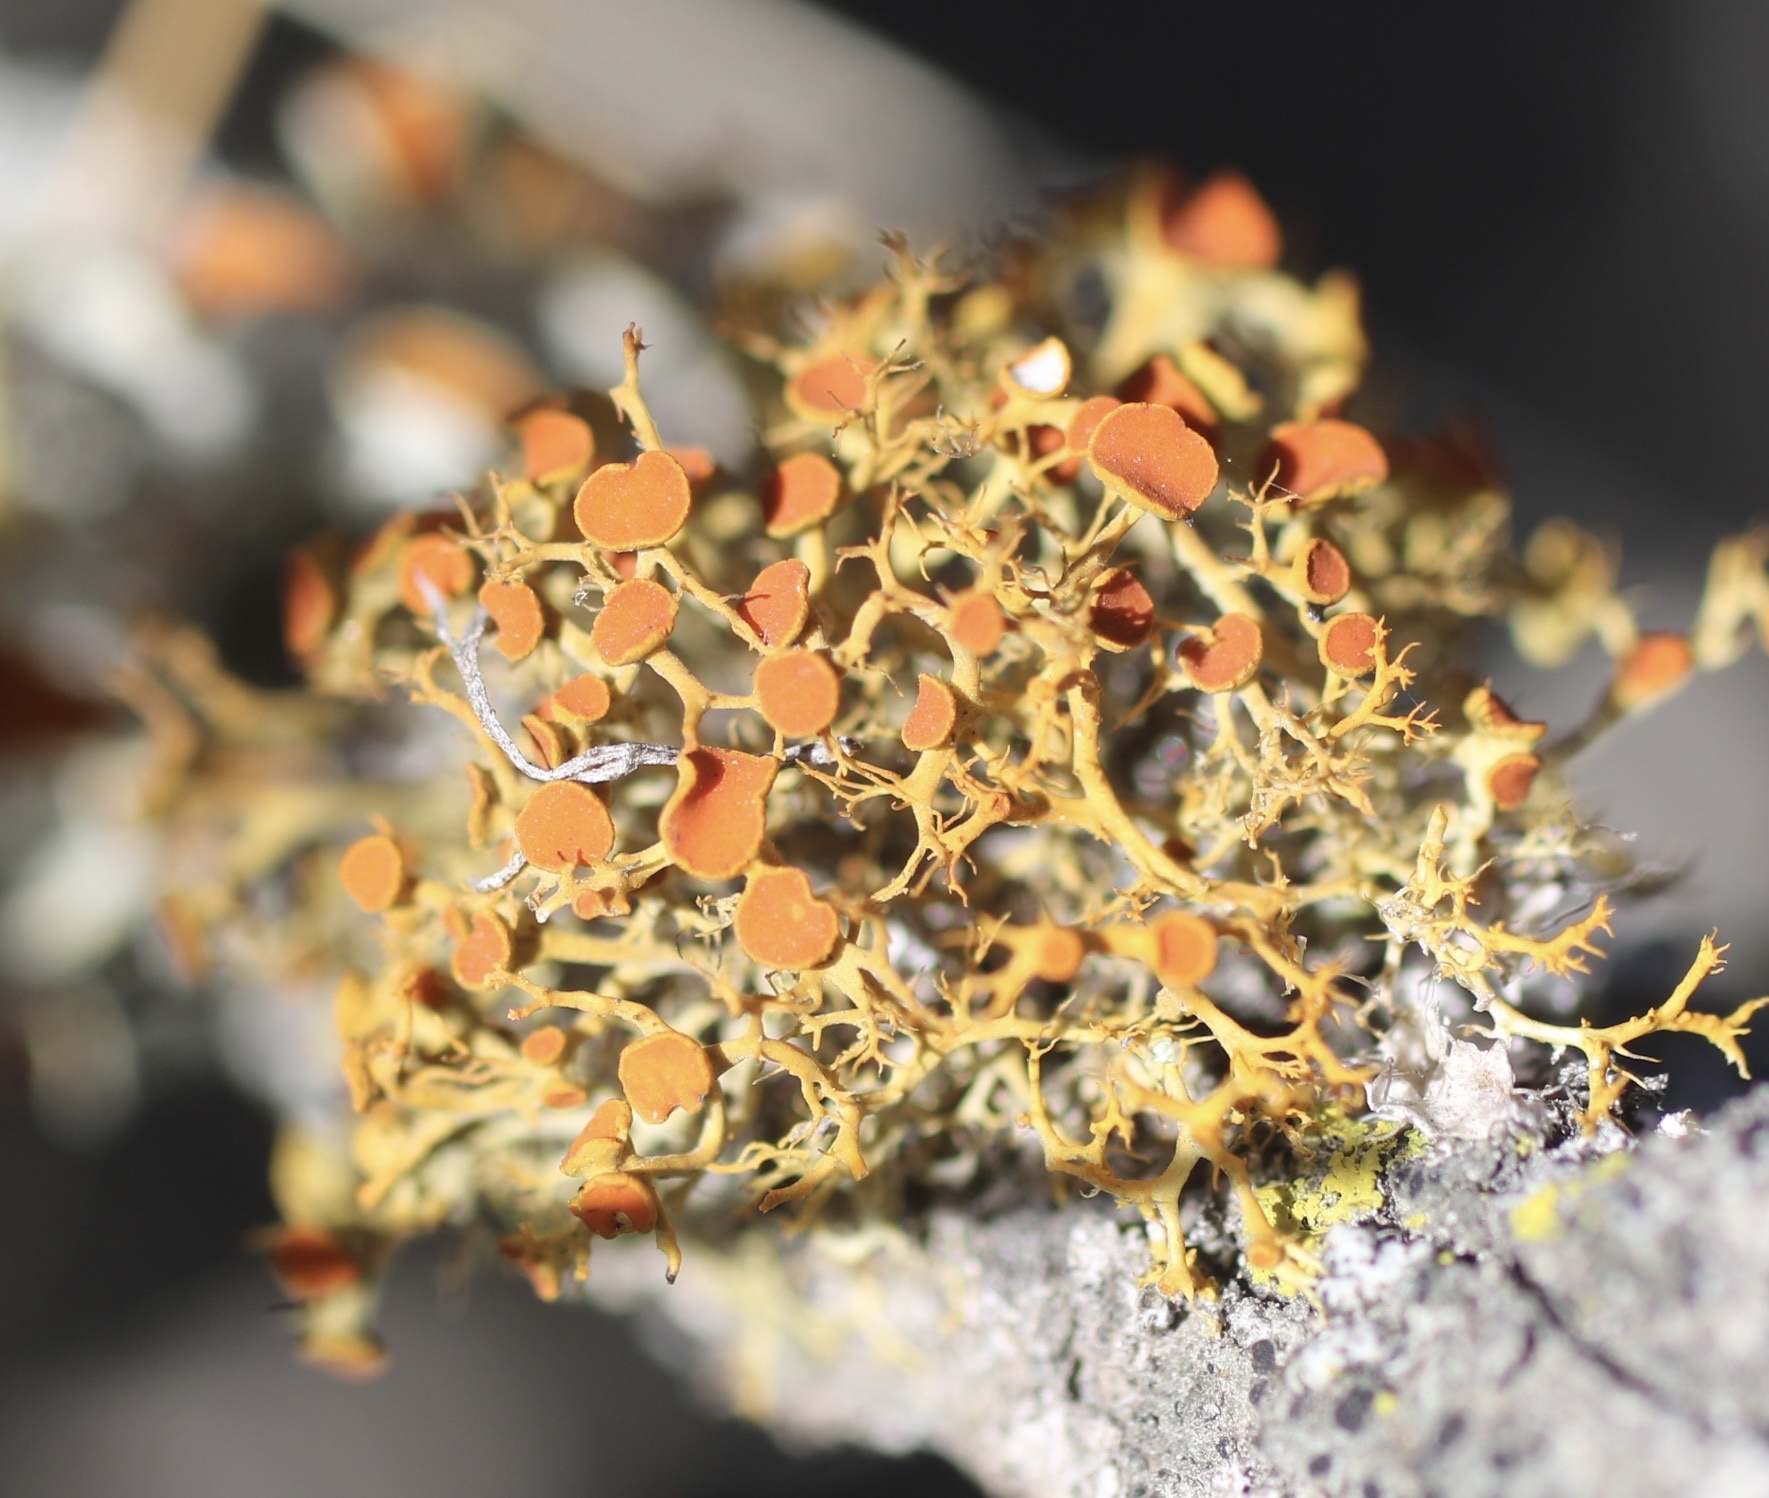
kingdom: Fungi
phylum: Ascomycota
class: Lecanoromycetes
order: Teloschistales
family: Teloschistaceae
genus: Niorma
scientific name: Niorma chrysophthalma
